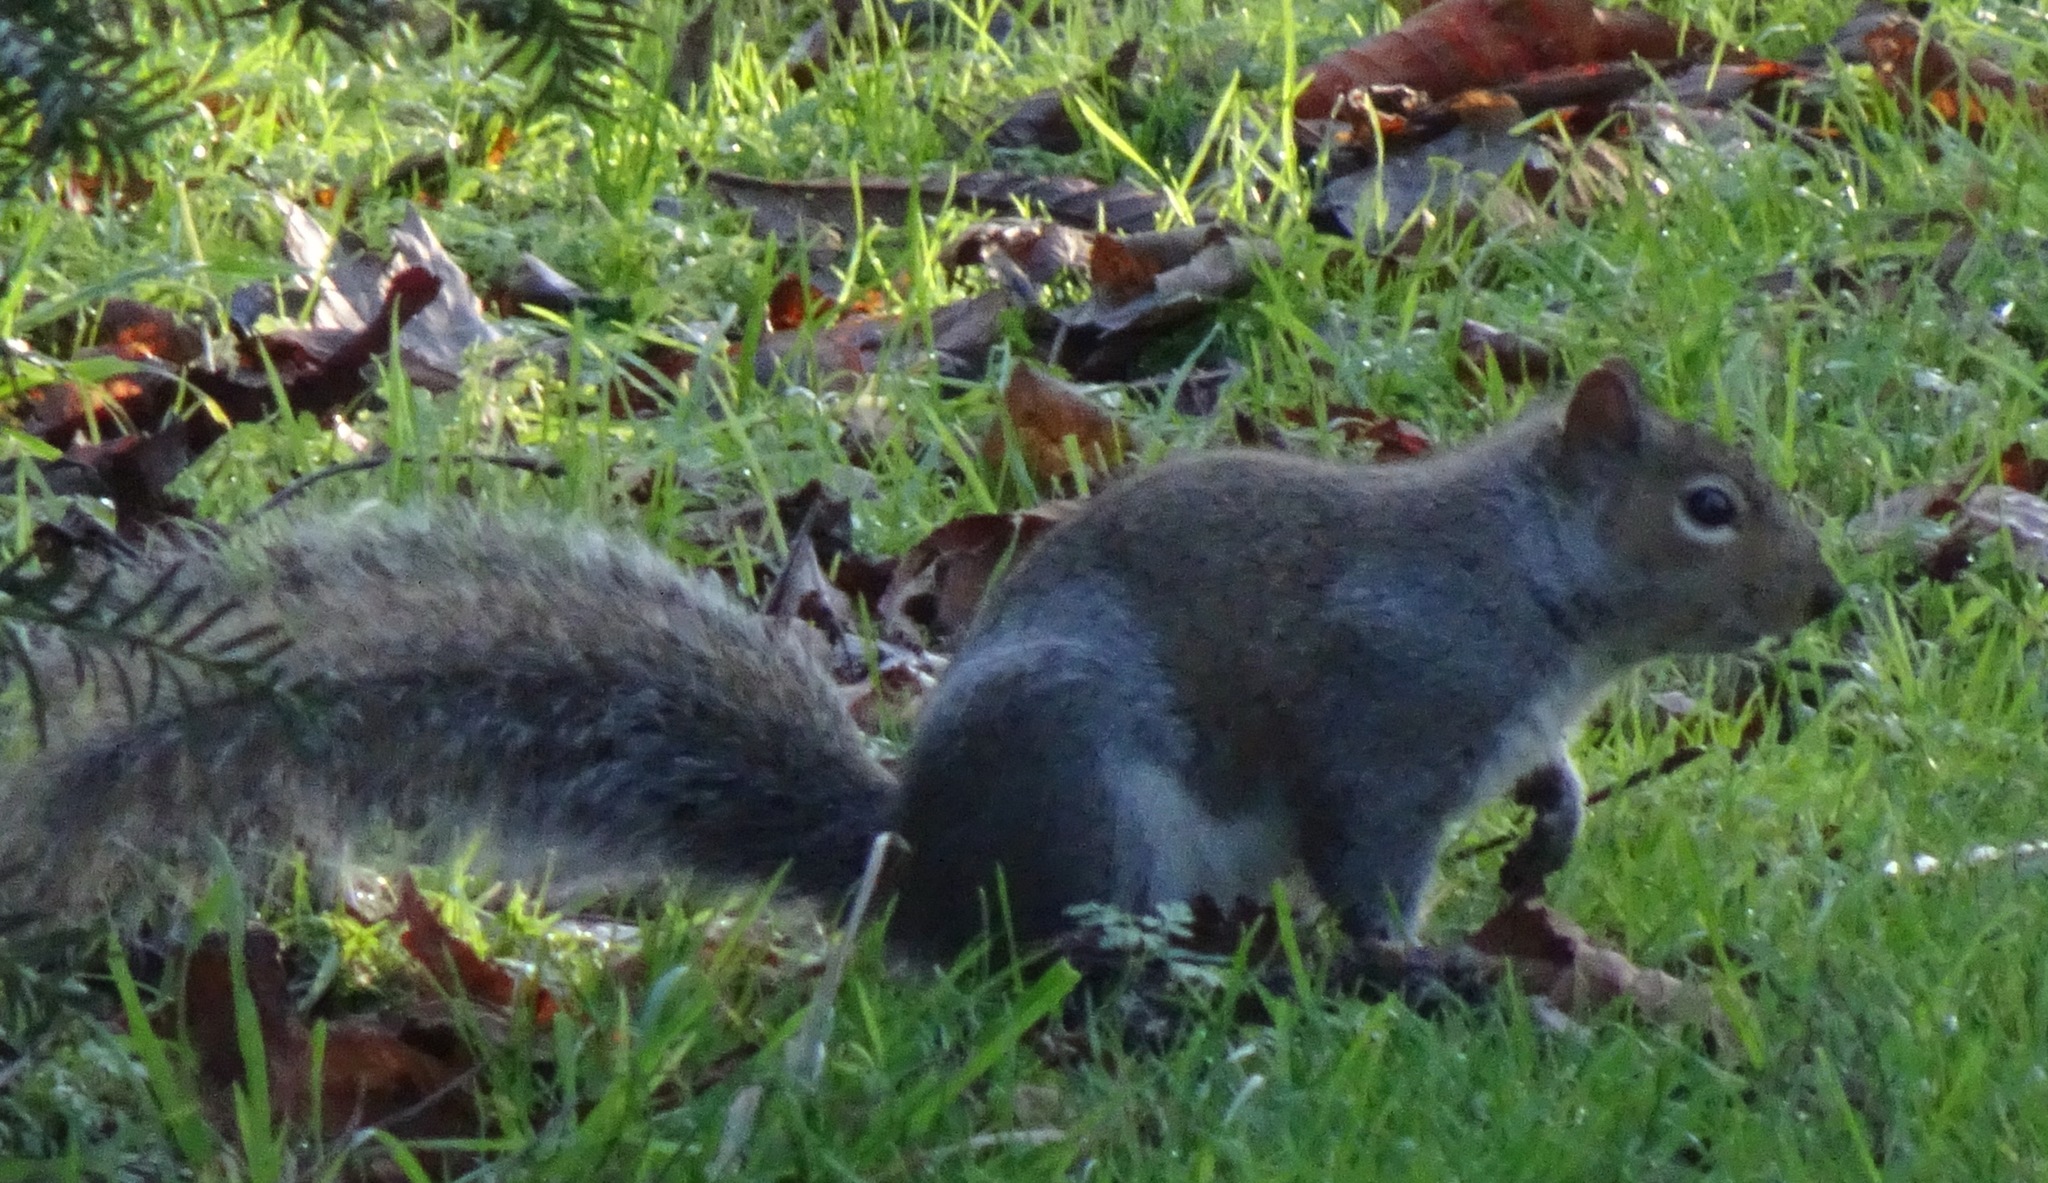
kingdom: Animalia
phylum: Chordata
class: Mammalia
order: Rodentia
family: Sciuridae
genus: Sciurus
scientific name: Sciurus carolinensis
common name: Eastern gray squirrel
